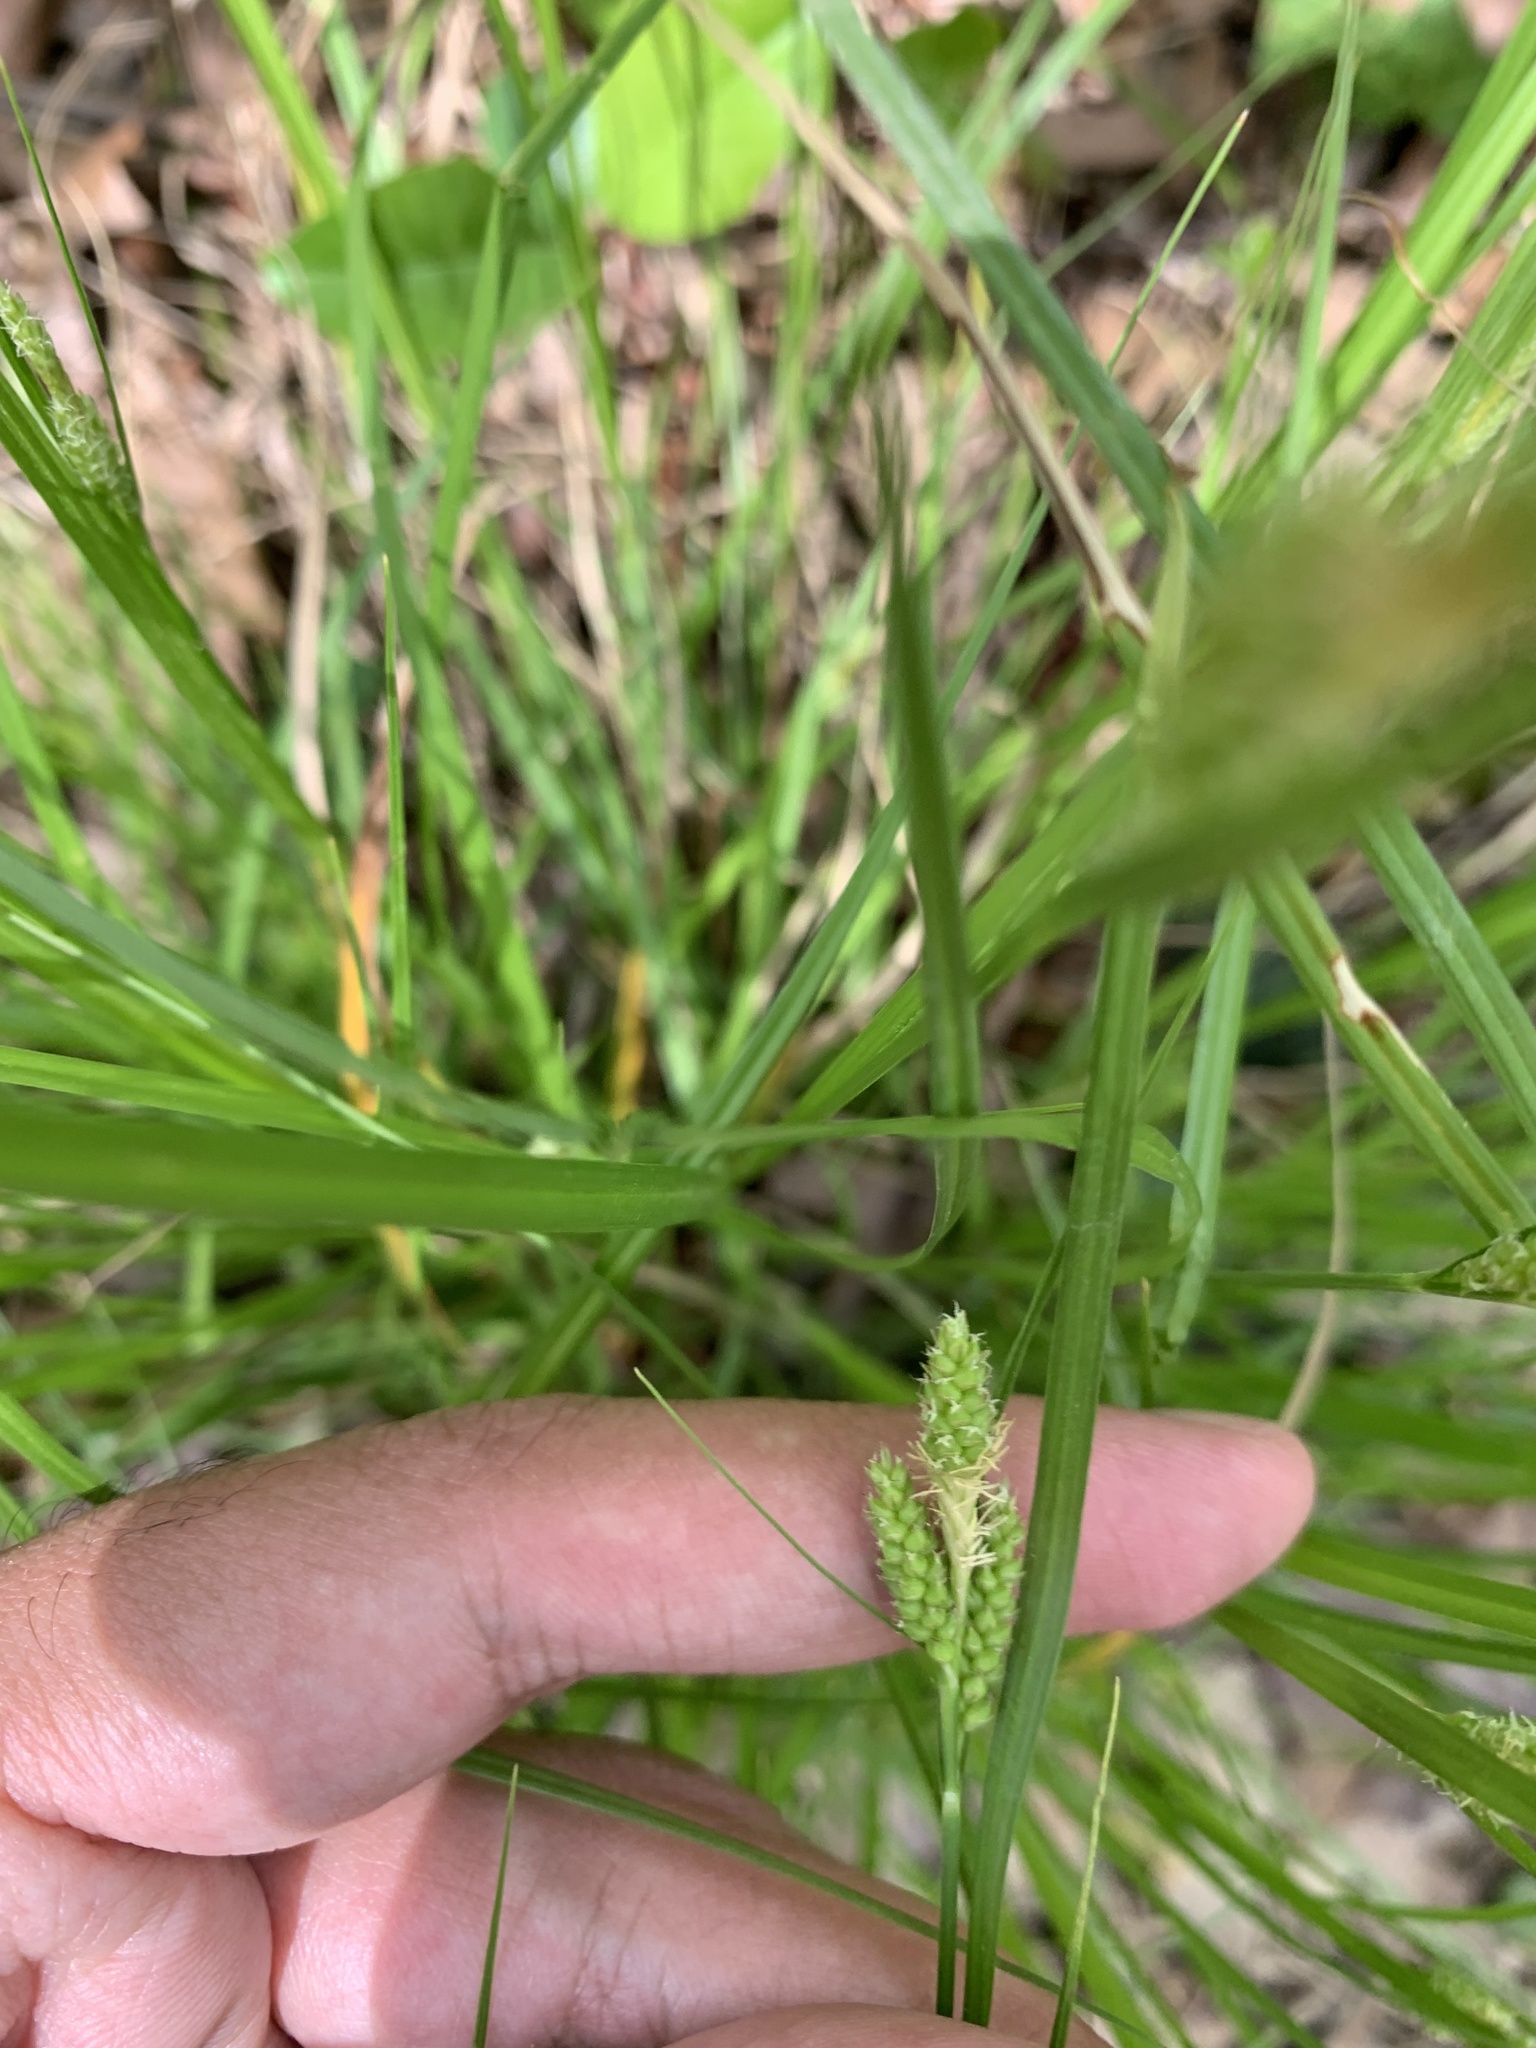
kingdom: Plantae
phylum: Tracheophyta
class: Liliopsida
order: Poales
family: Cyperaceae
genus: Carex
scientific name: Carex caroliniana
